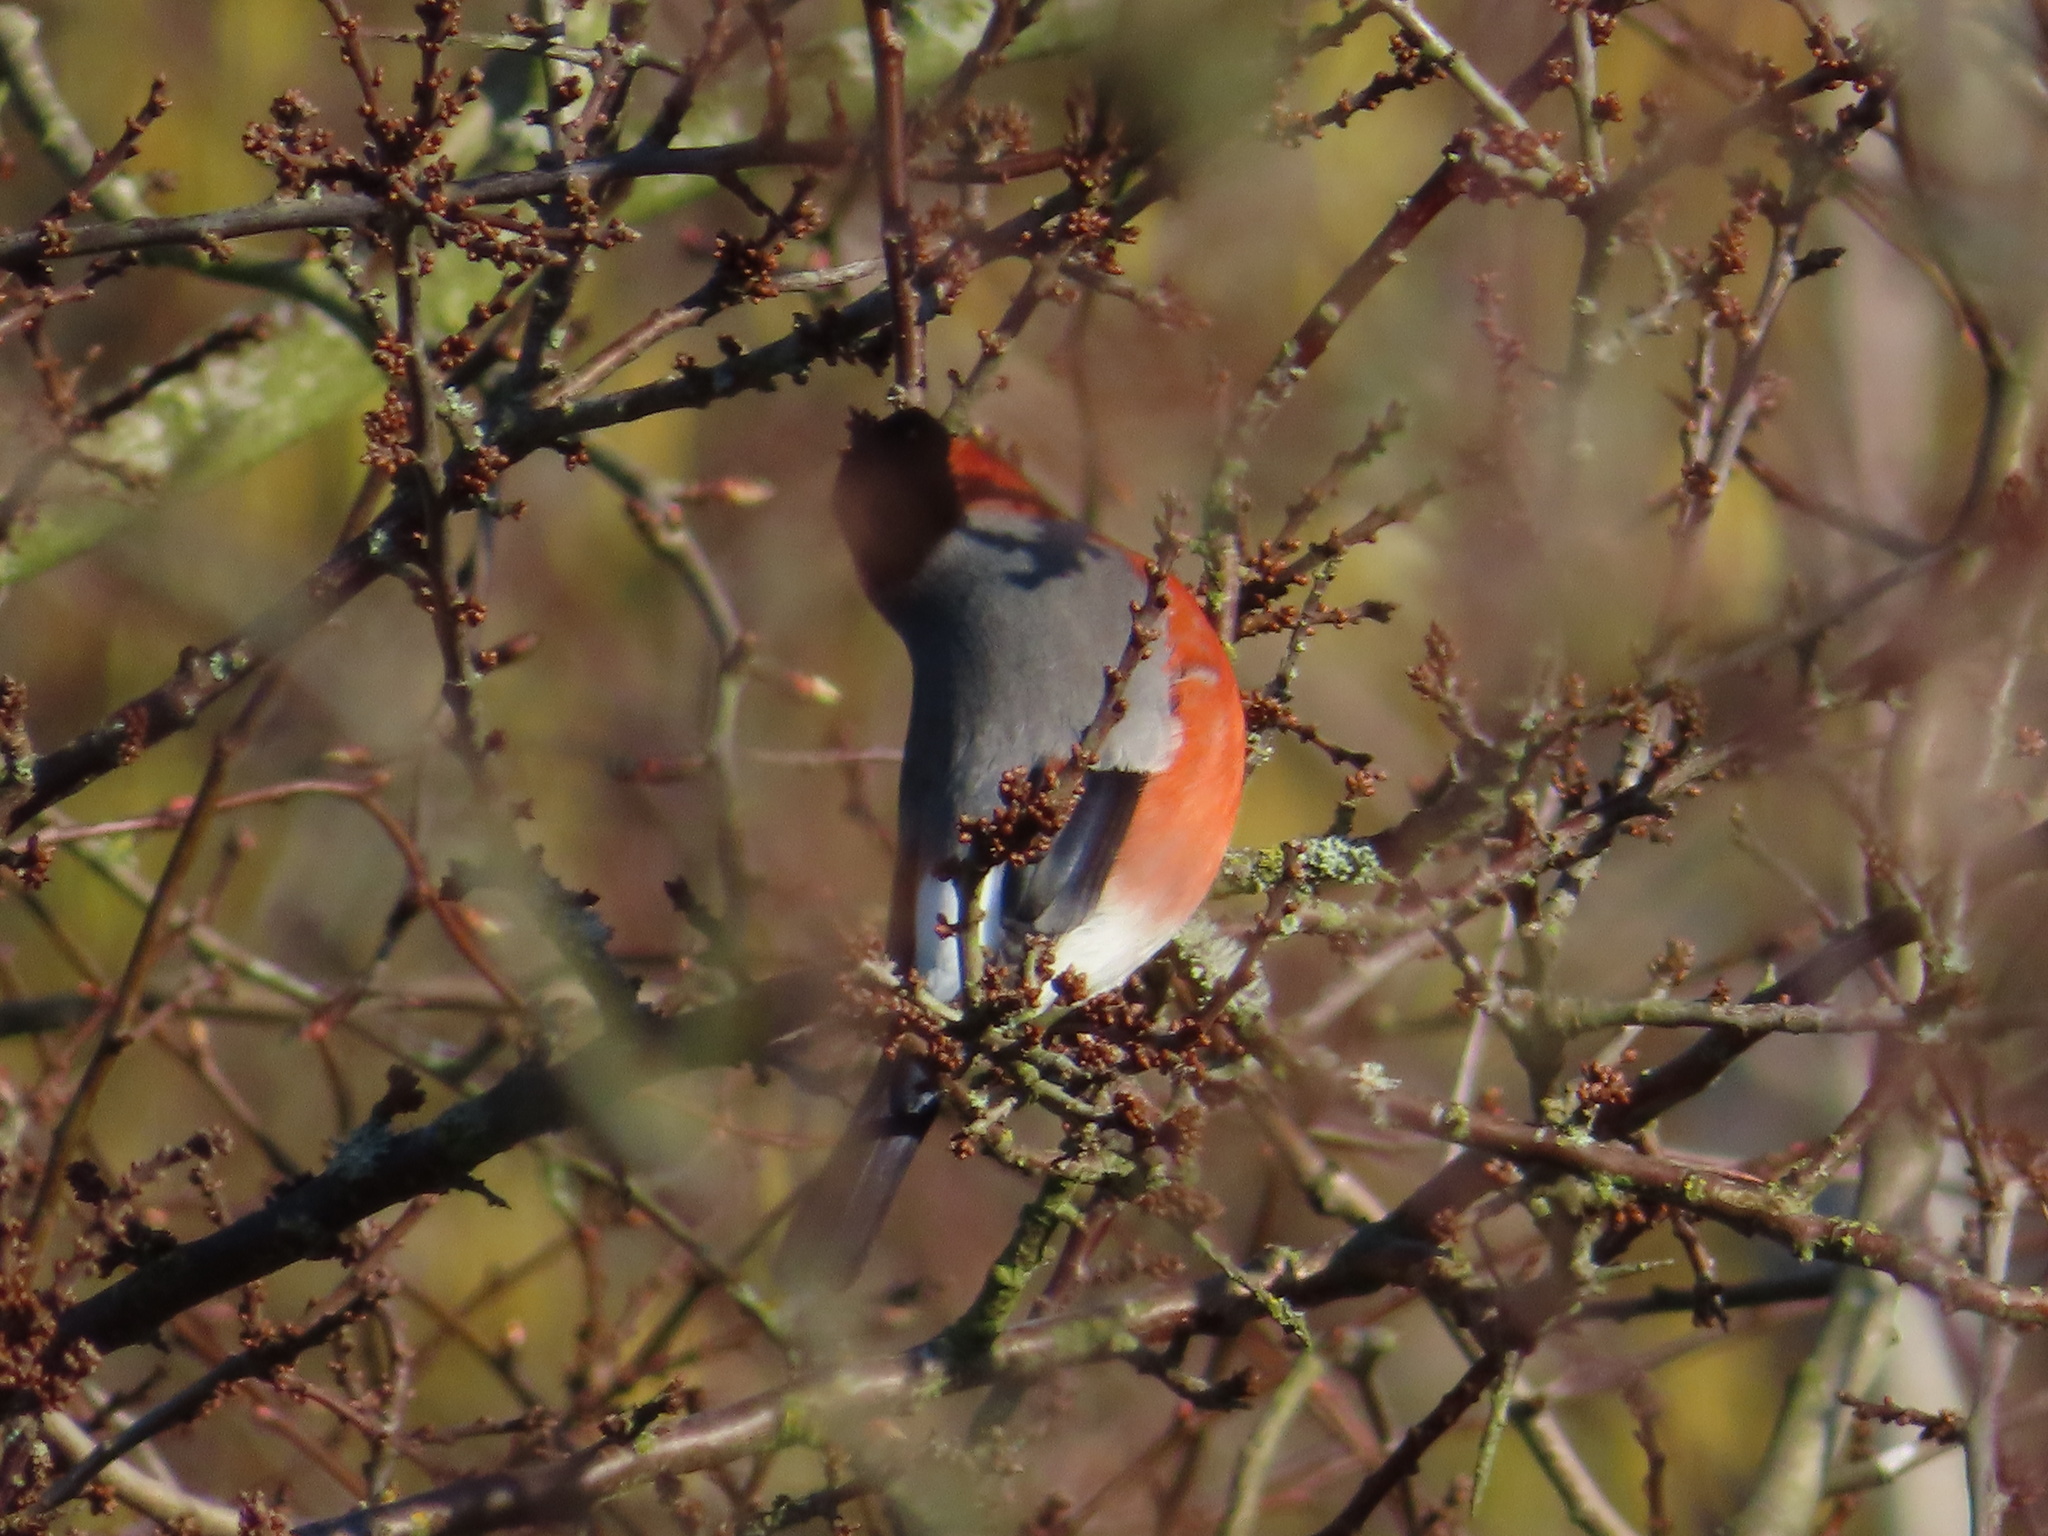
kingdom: Animalia
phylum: Chordata
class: Aves
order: Passeriformes
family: Fringillidae
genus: Pyrrhula
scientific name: Pyrrhula pyrrhula
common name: Eurasian bullfinch
